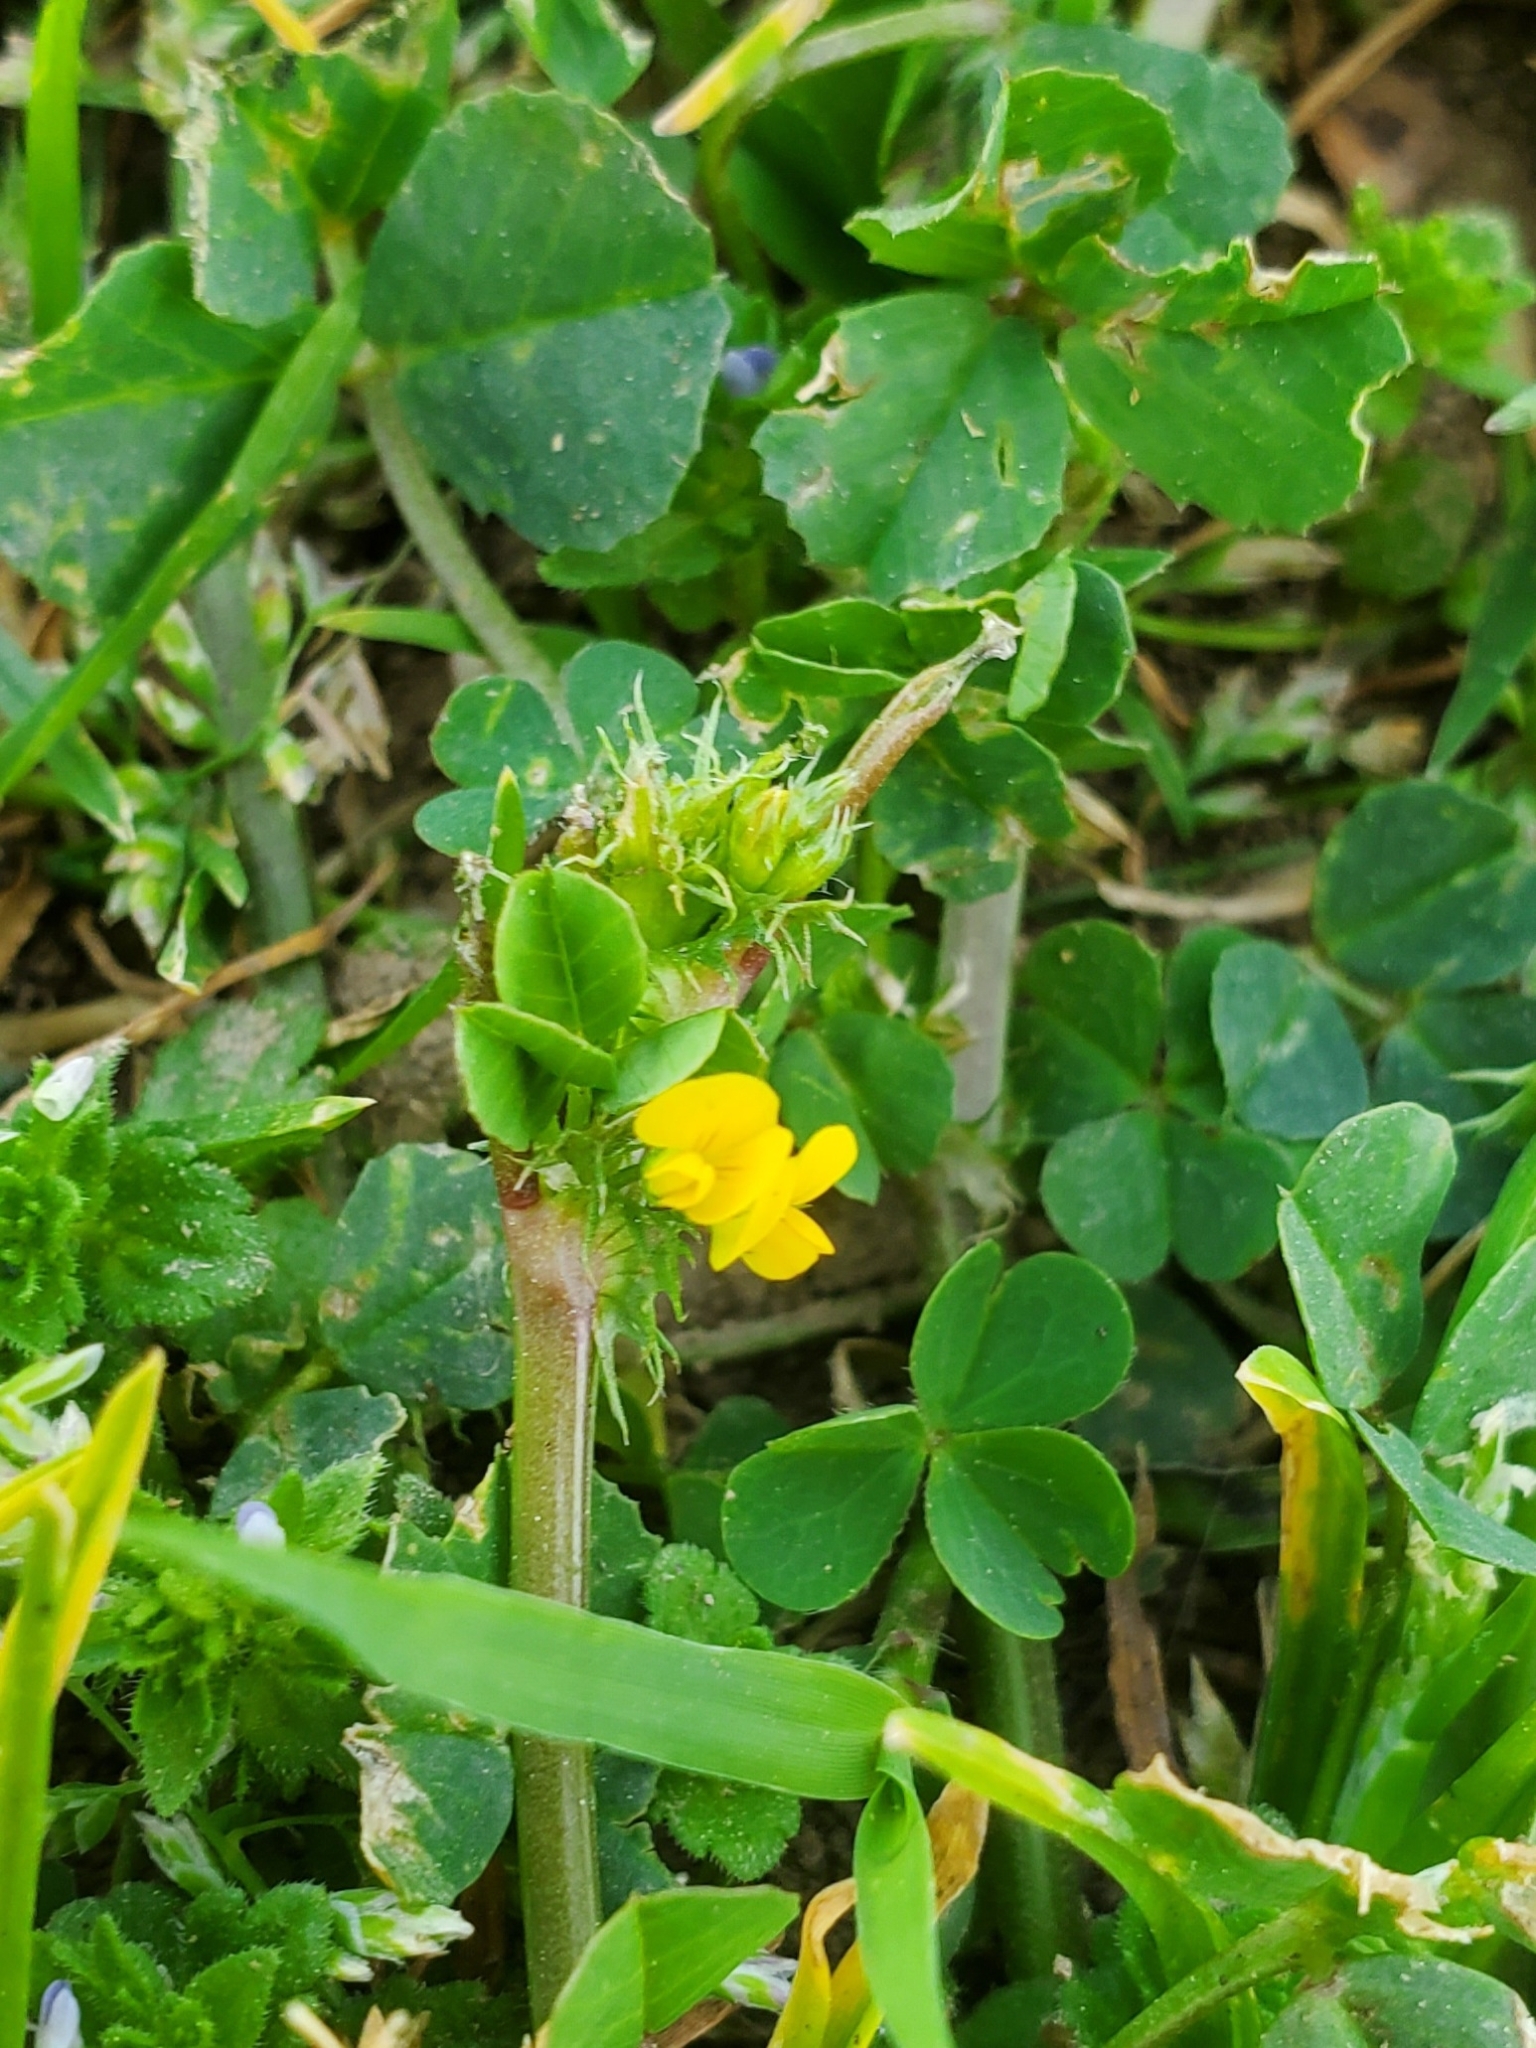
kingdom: Plantae
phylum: Tracheophyta
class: Magnoliopsida
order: Fabales
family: Fabaceae
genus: Medicago
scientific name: Medicago polymorpha
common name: Burclover
